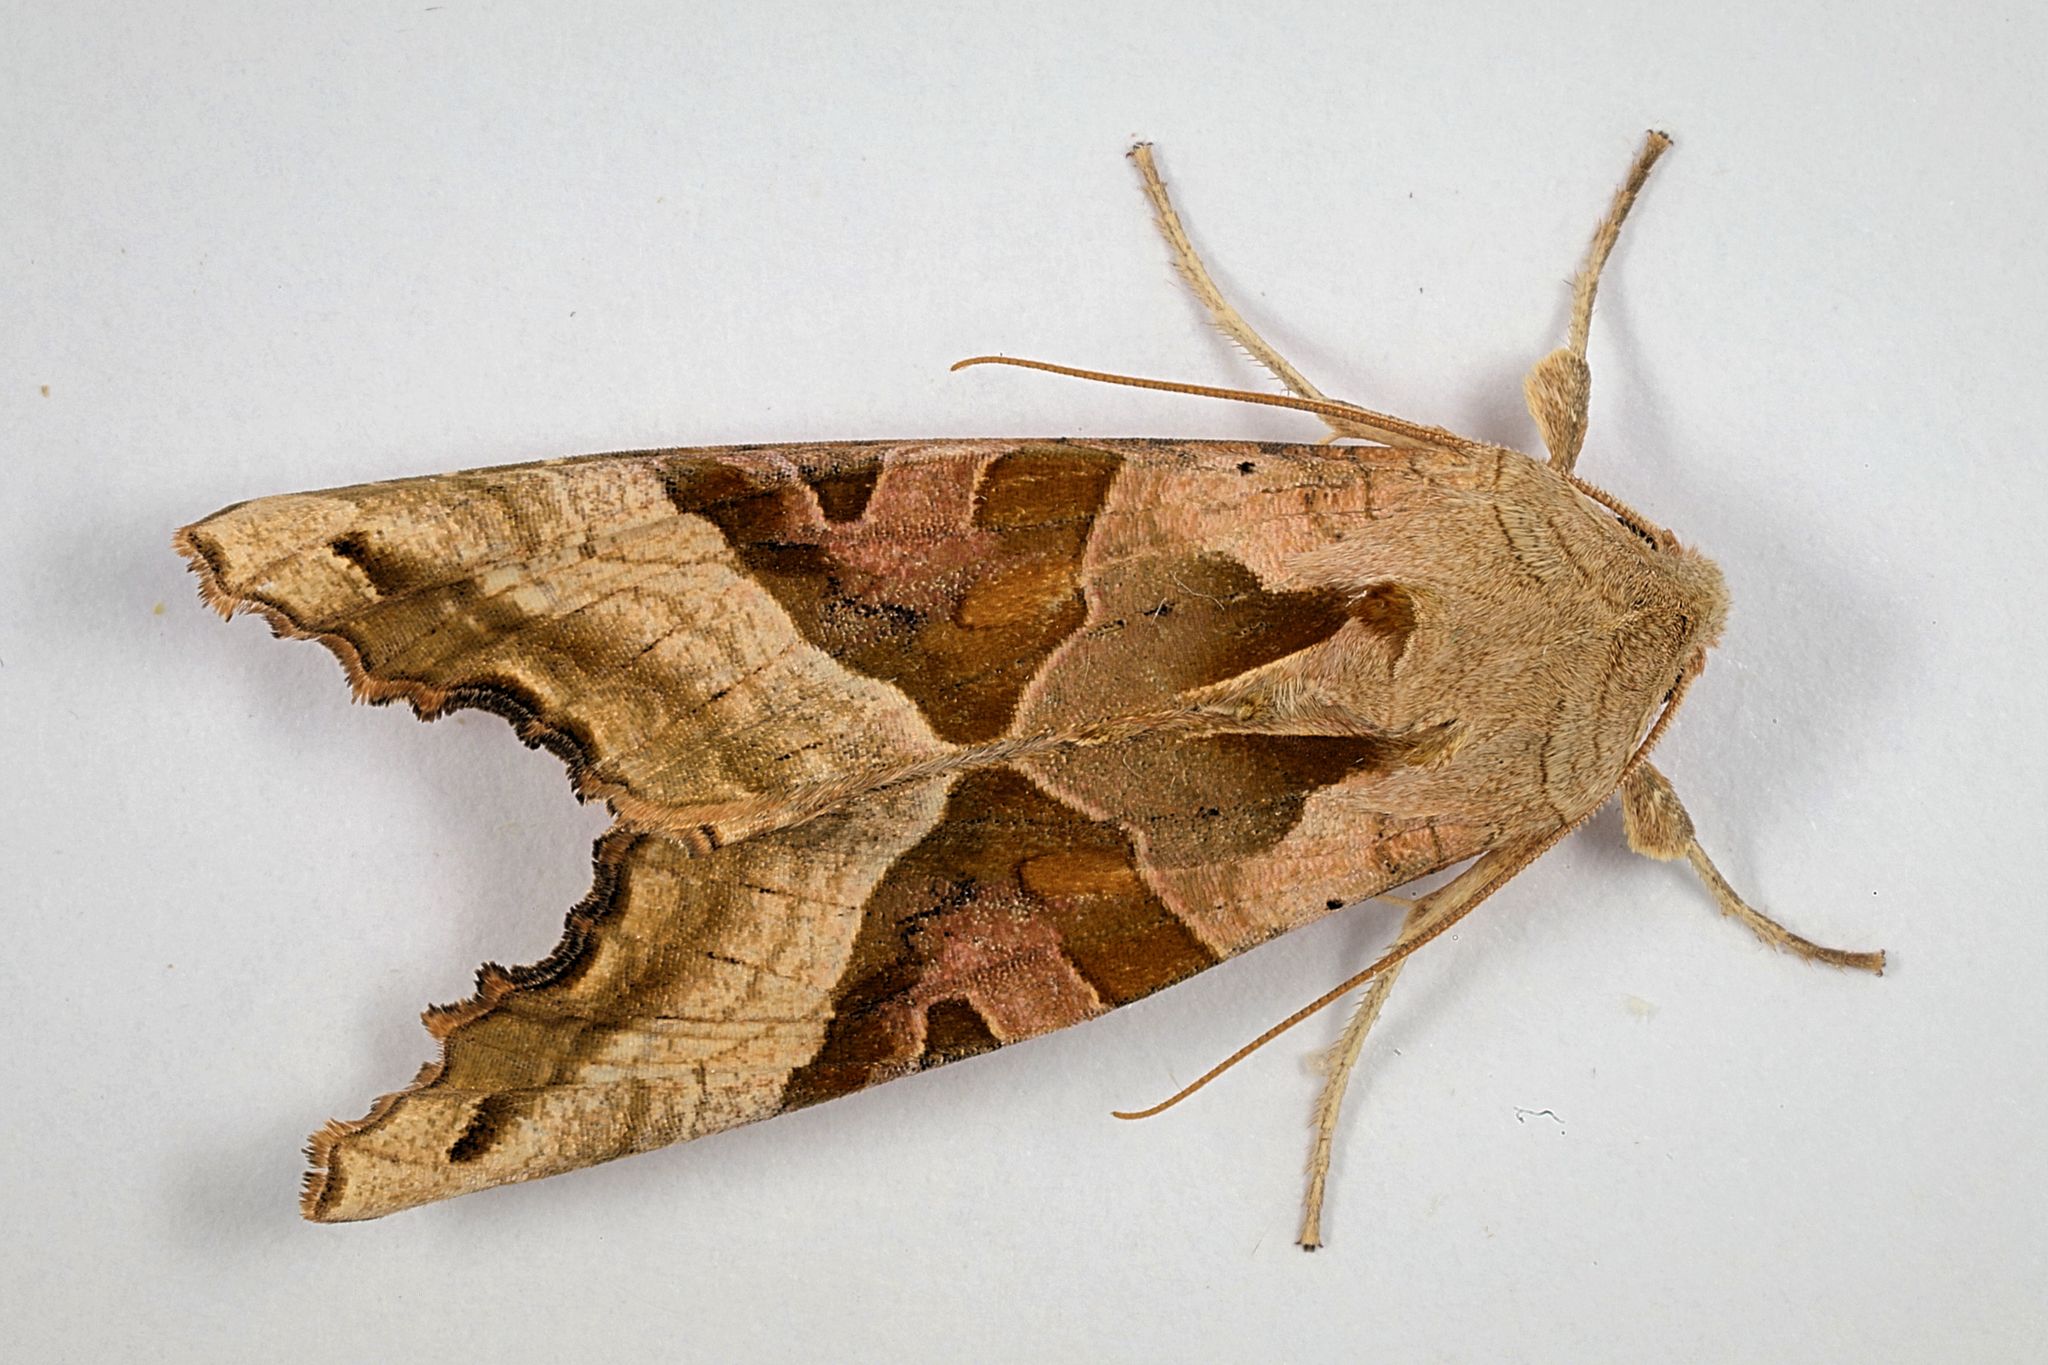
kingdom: Animalia
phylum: Arthropoda
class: Insecta
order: Lepidoptera
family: Noctuidae
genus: Phlogophora
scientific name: Phlogophora meticulosa
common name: Angle shades
